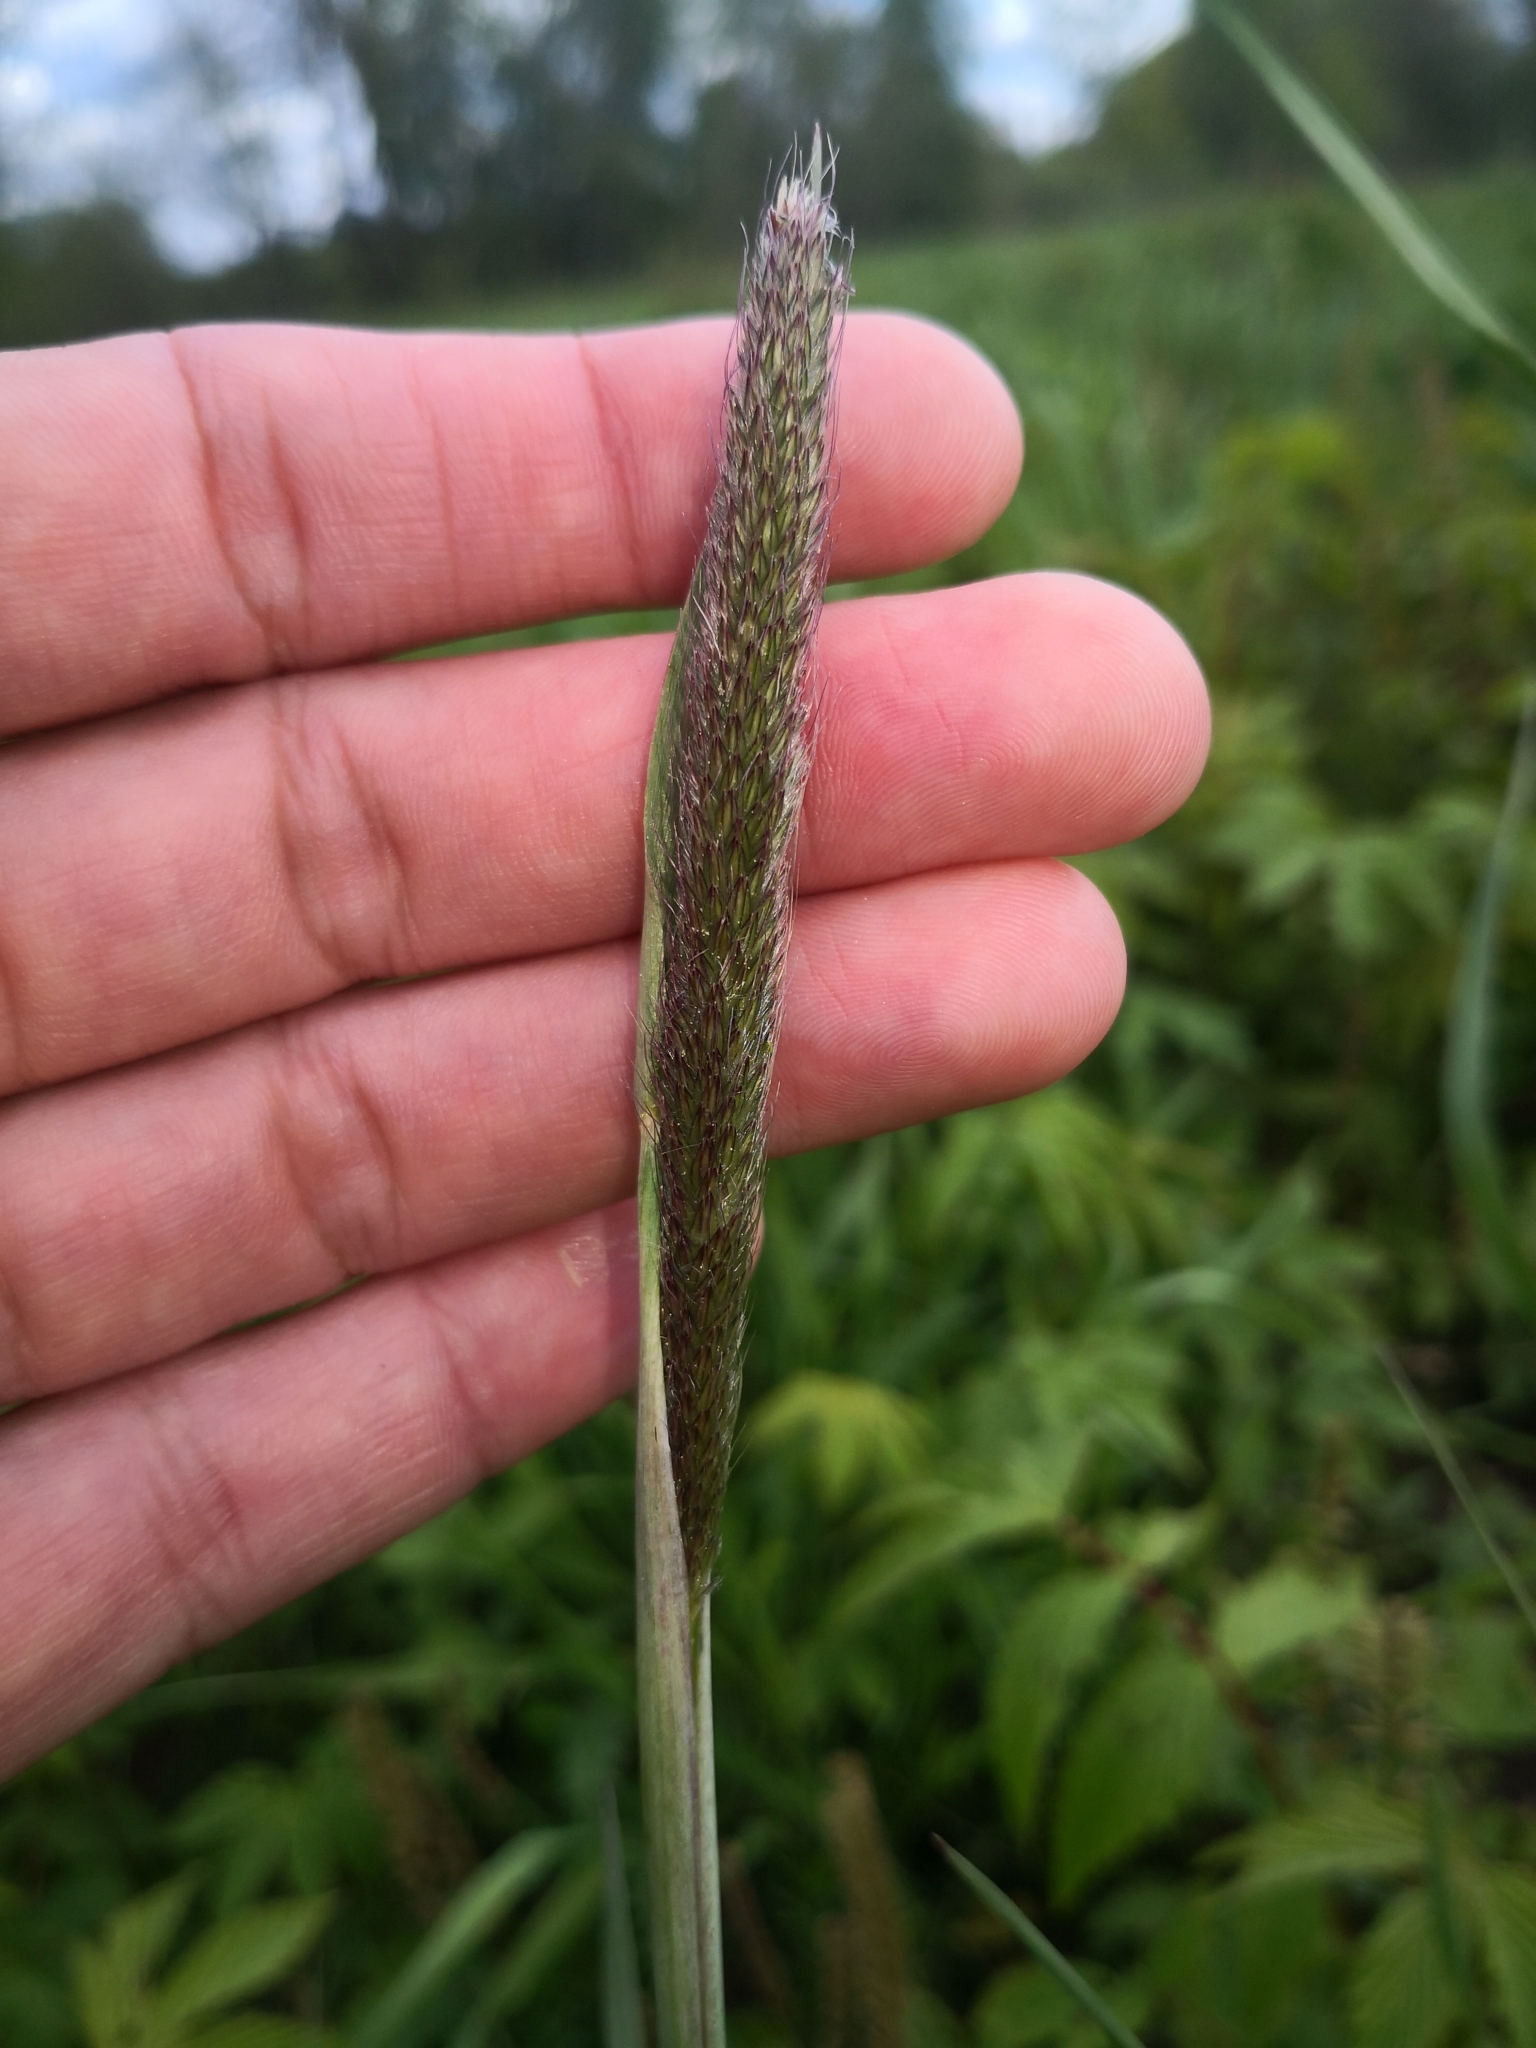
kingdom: Plantae
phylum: Tracheophyta
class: Liliopsida
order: Poales
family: Poaceae
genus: Alopecurus
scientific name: Alopecurus pratensis
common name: Meadow foxtail
